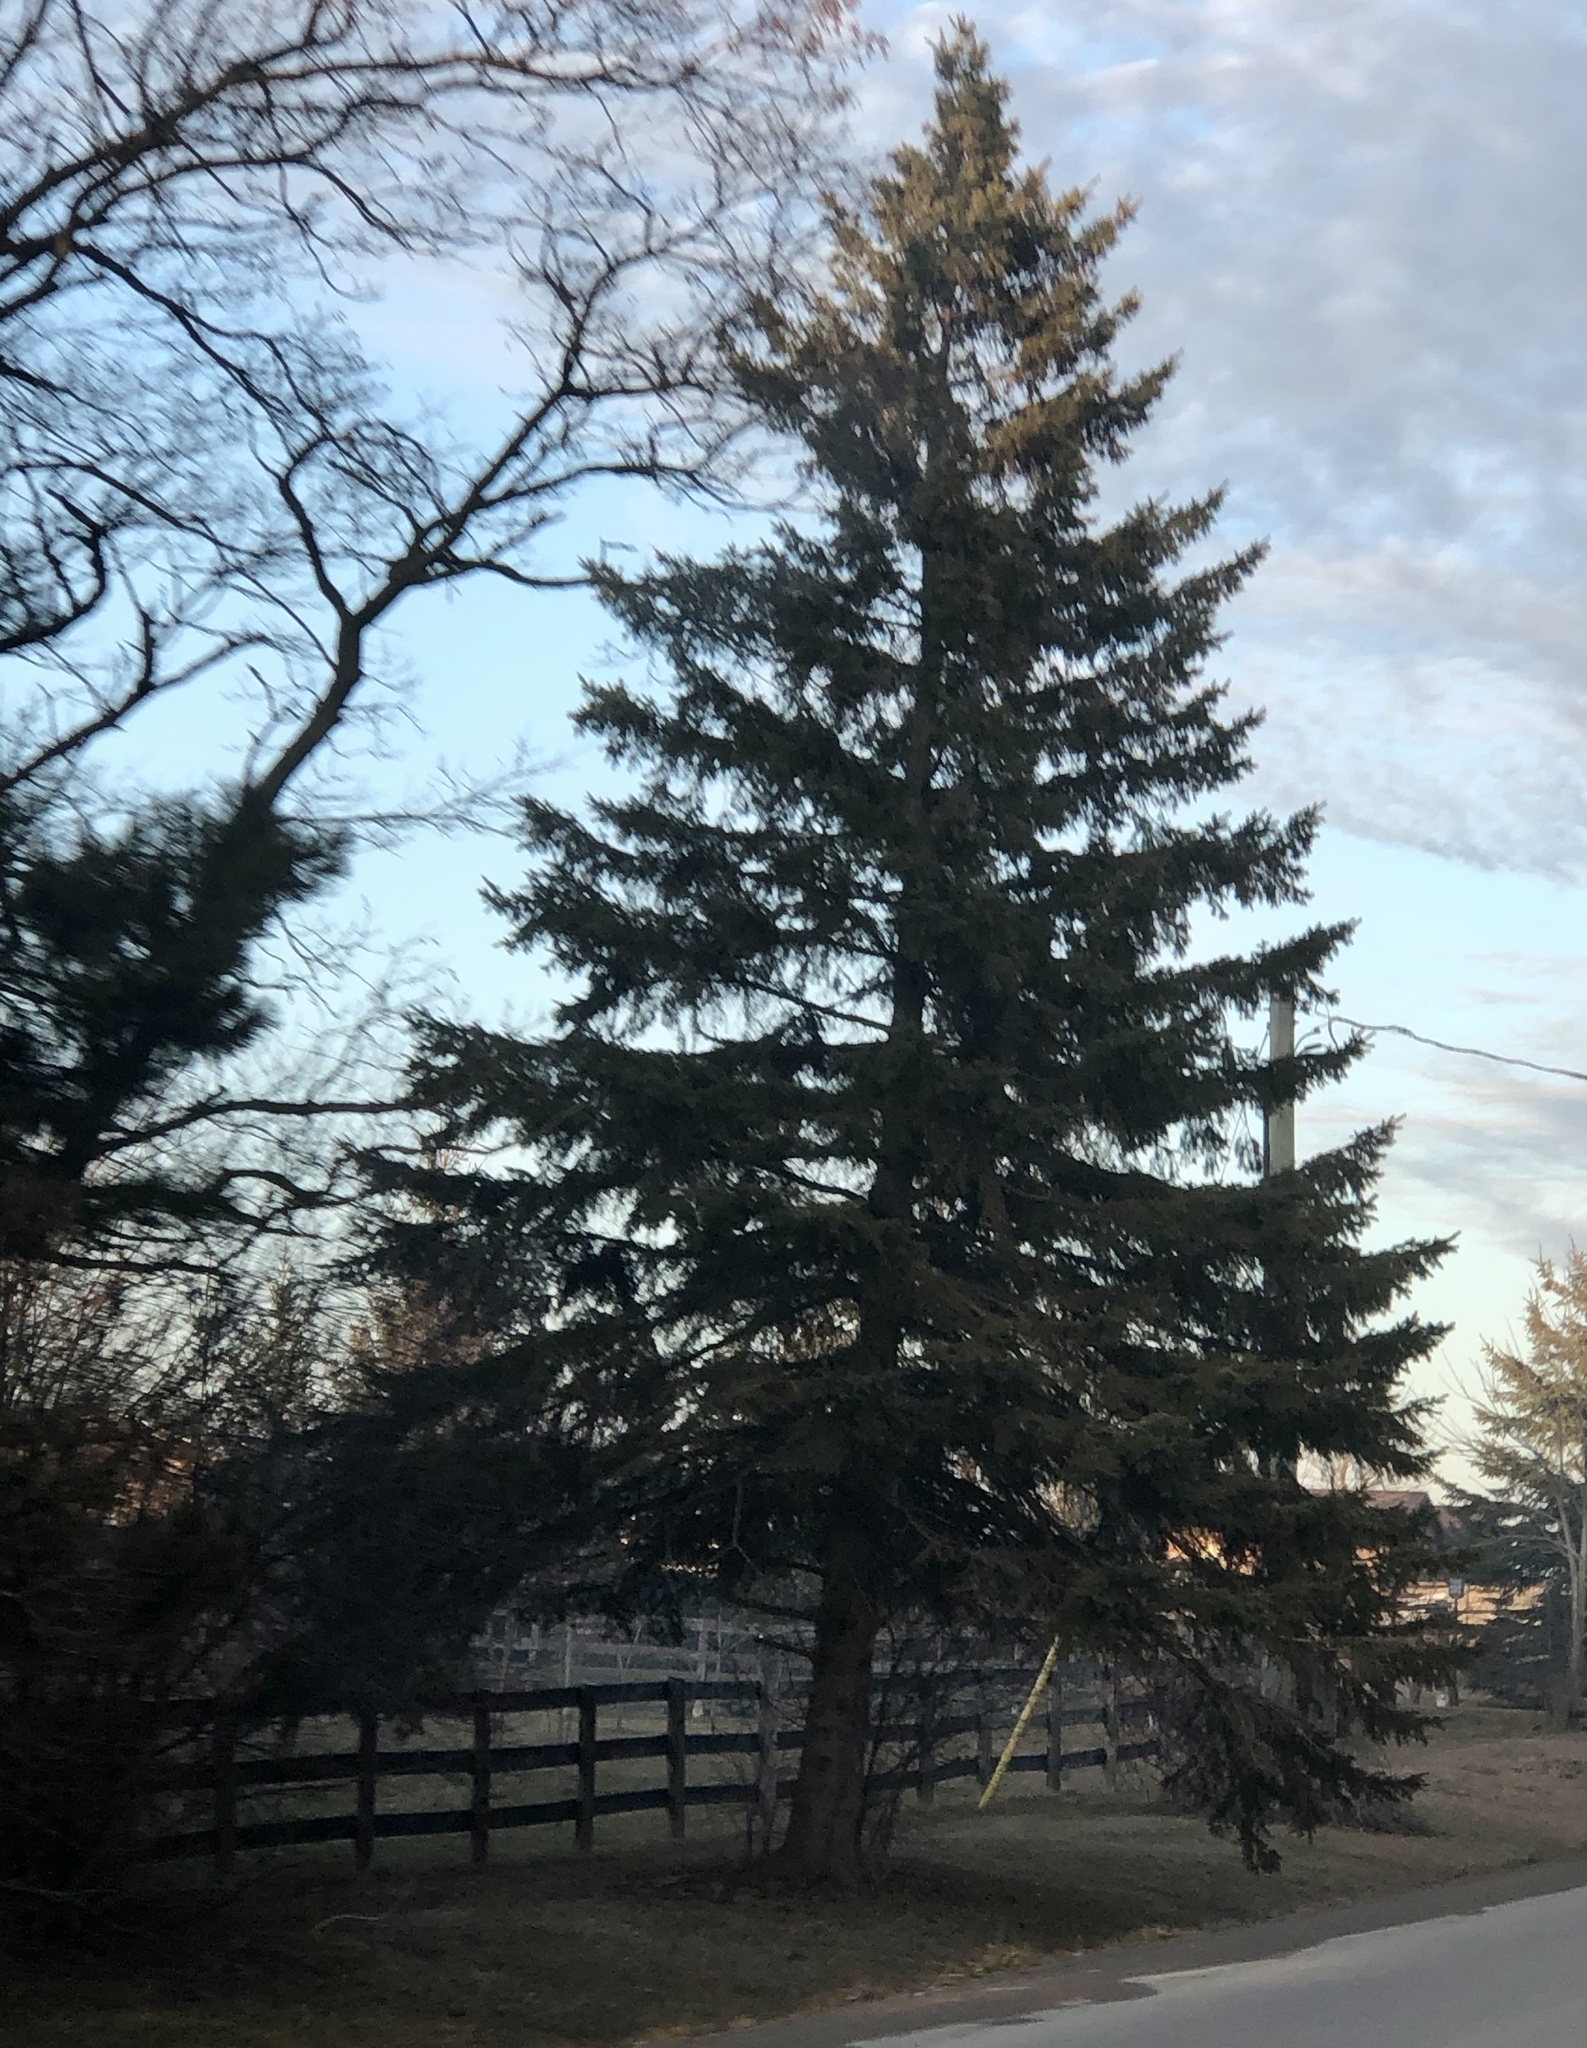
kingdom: Plantae
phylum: Tracheophyta
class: Pinopsida
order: Pinales
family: Pinaceae
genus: Picea
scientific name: Picea abies
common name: Norway spruce
